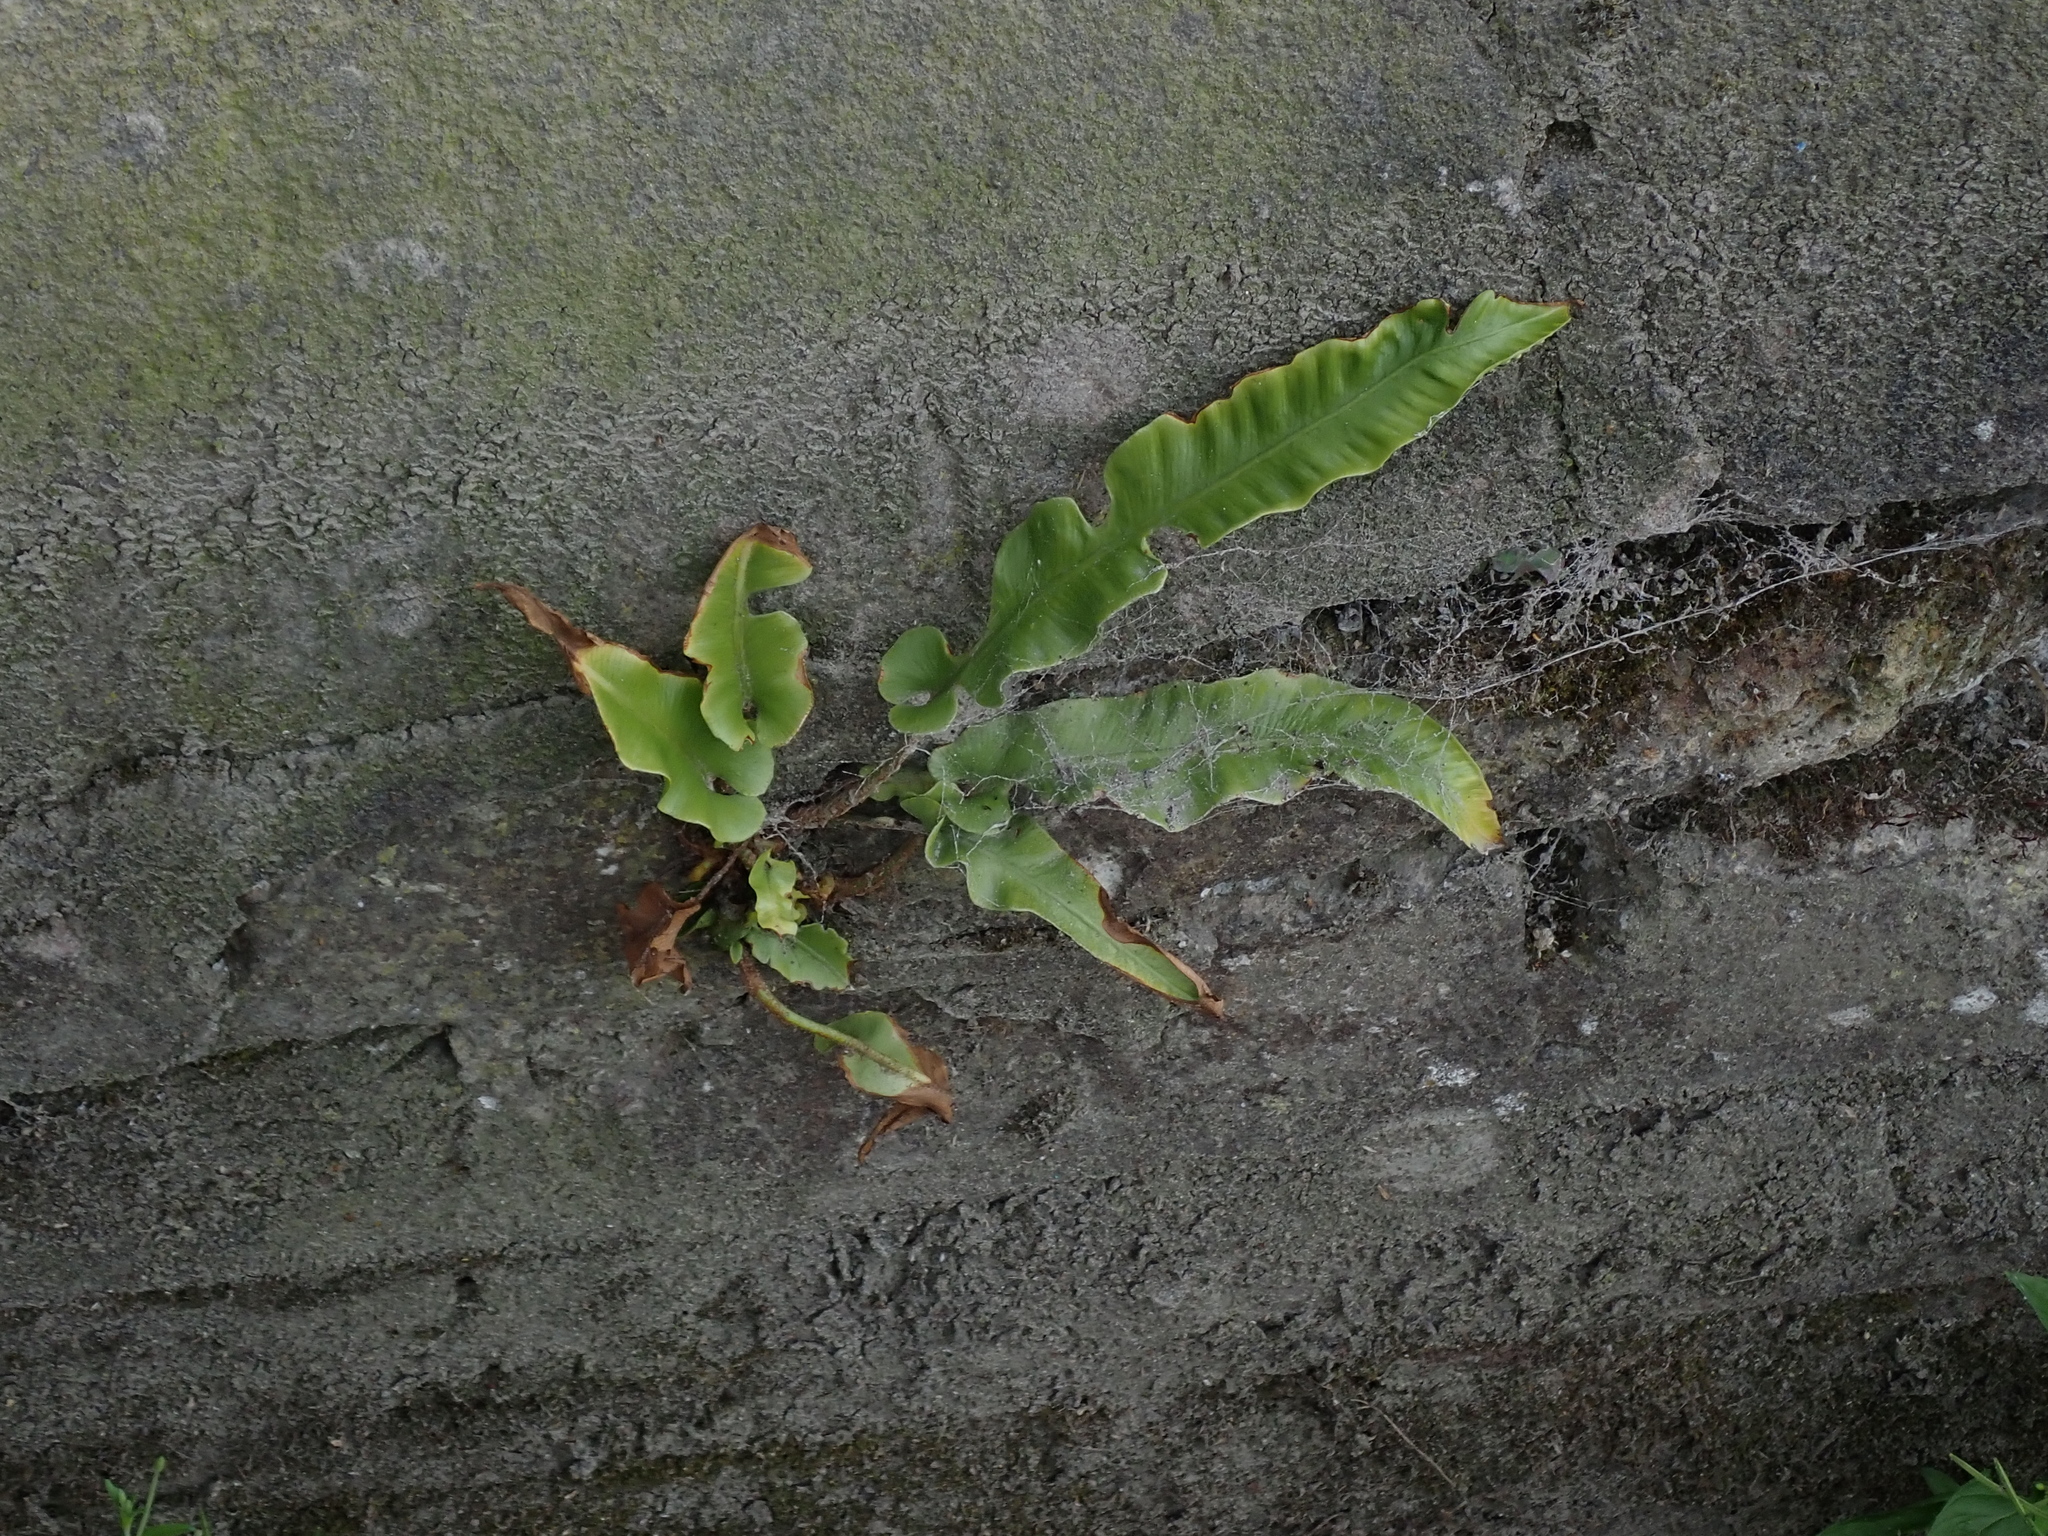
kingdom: Plantae
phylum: Tracheophyta
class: Polypodiopsida
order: Polypodiales
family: Aspleniaceae
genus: Asplenium
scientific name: Asplenium scolopendrium
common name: Hart's-tongue fern
